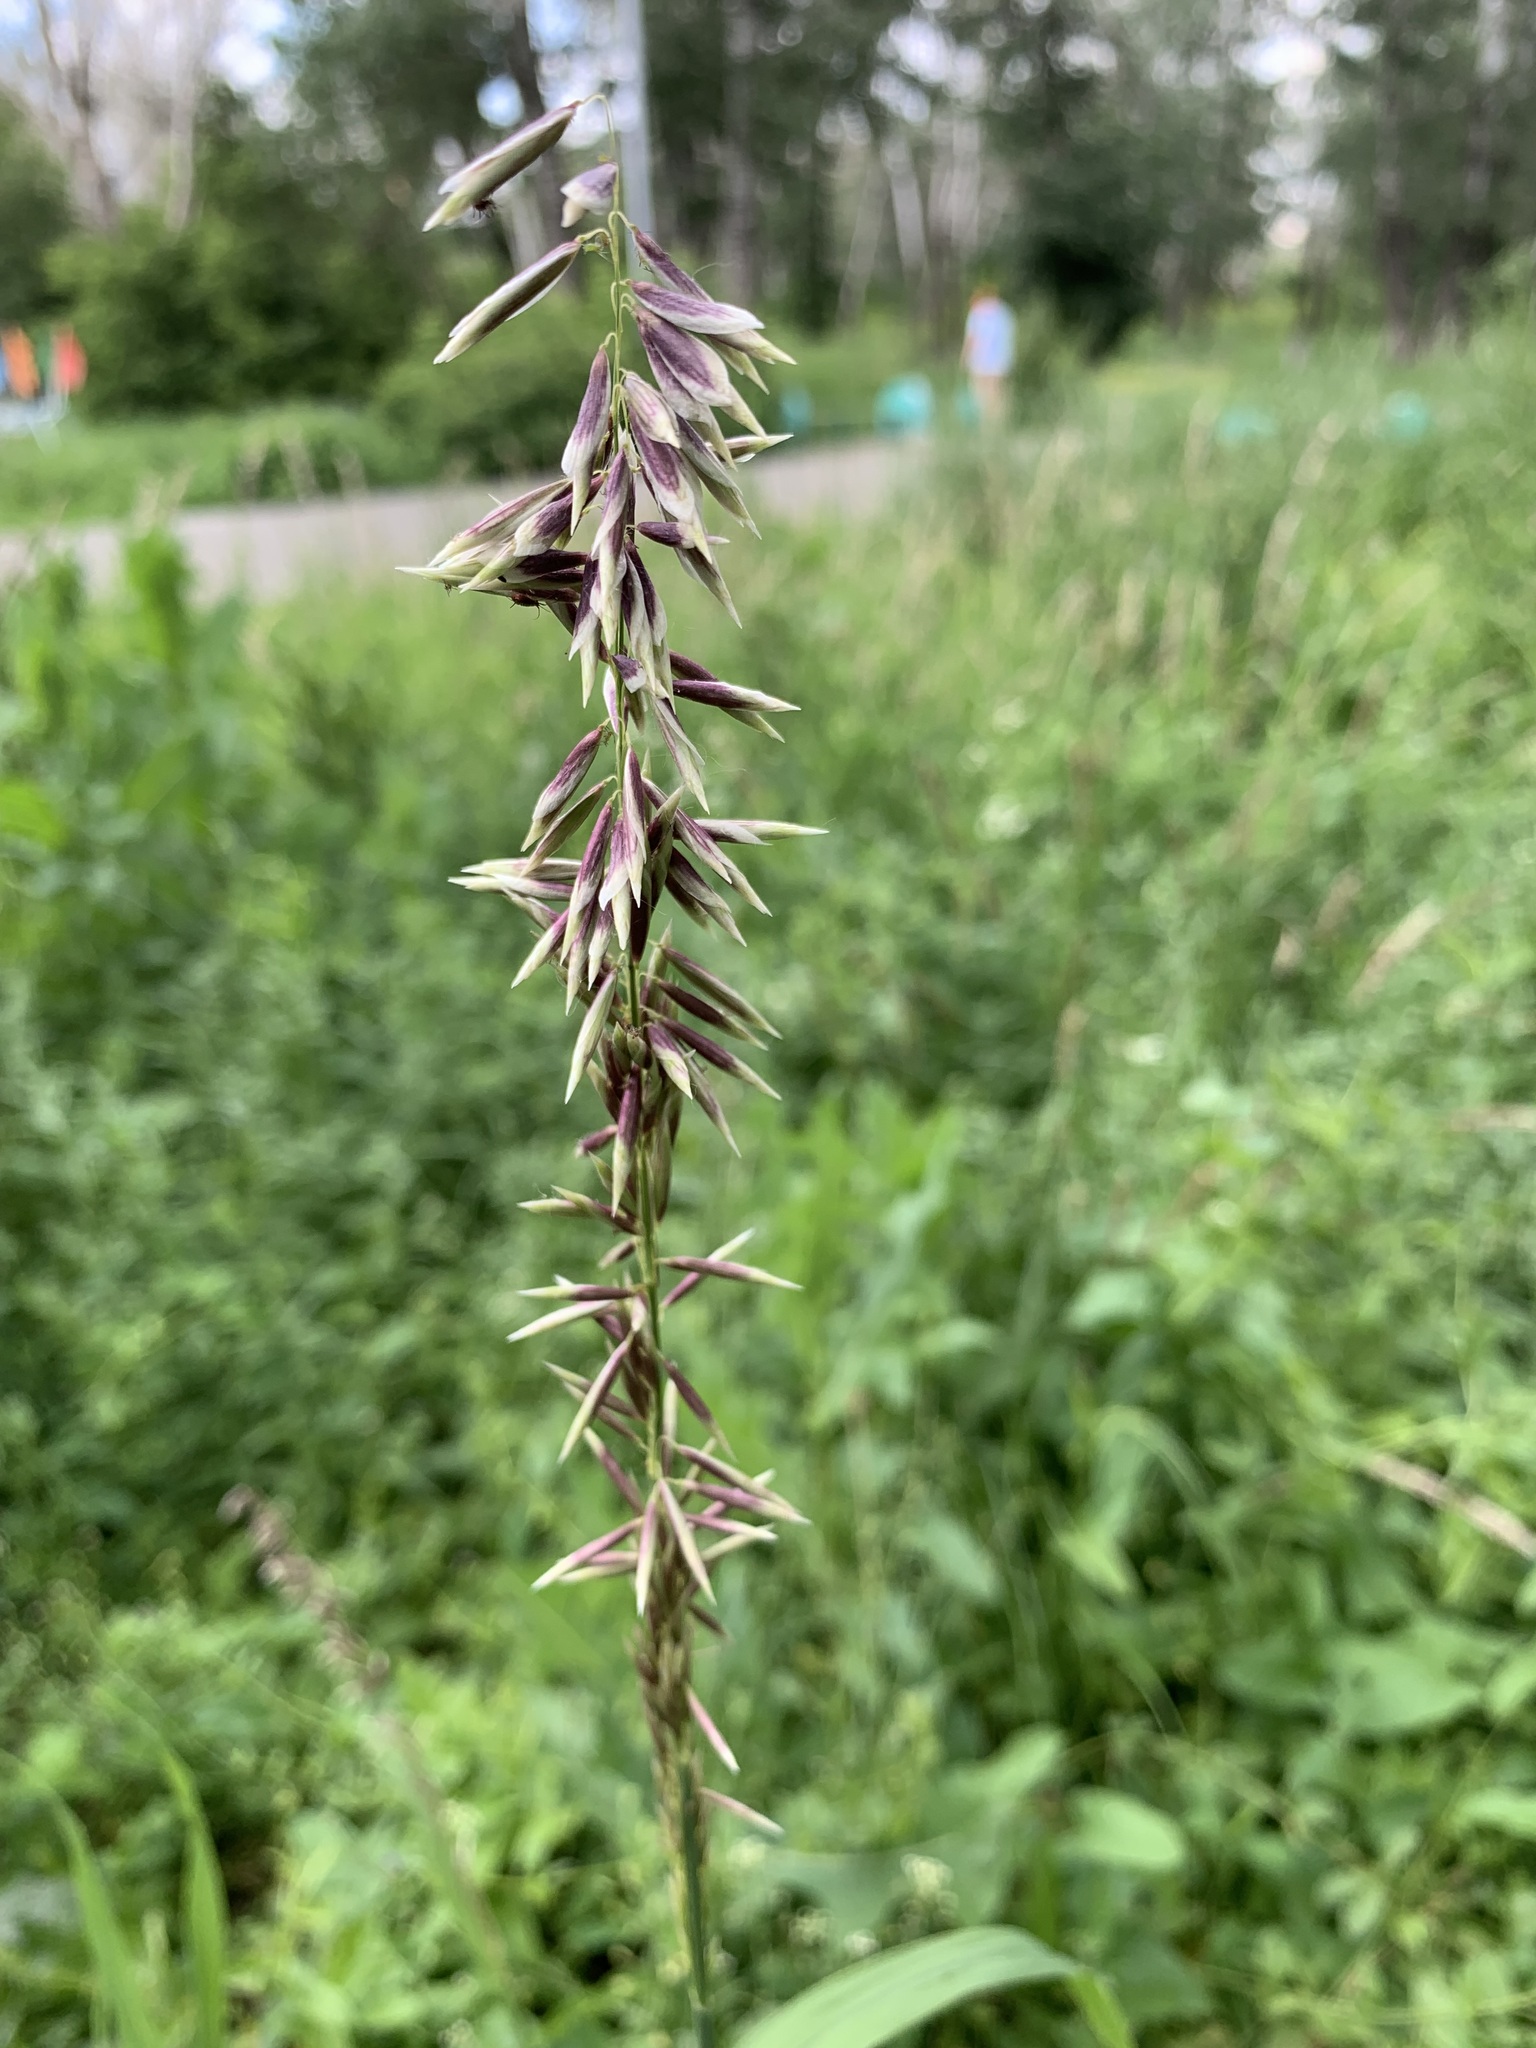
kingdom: Plantae
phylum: Tracheophyta
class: Liliopsida
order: Poales
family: Poaceae
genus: Melica
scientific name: Melica altissima
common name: Siberian melicgrass
